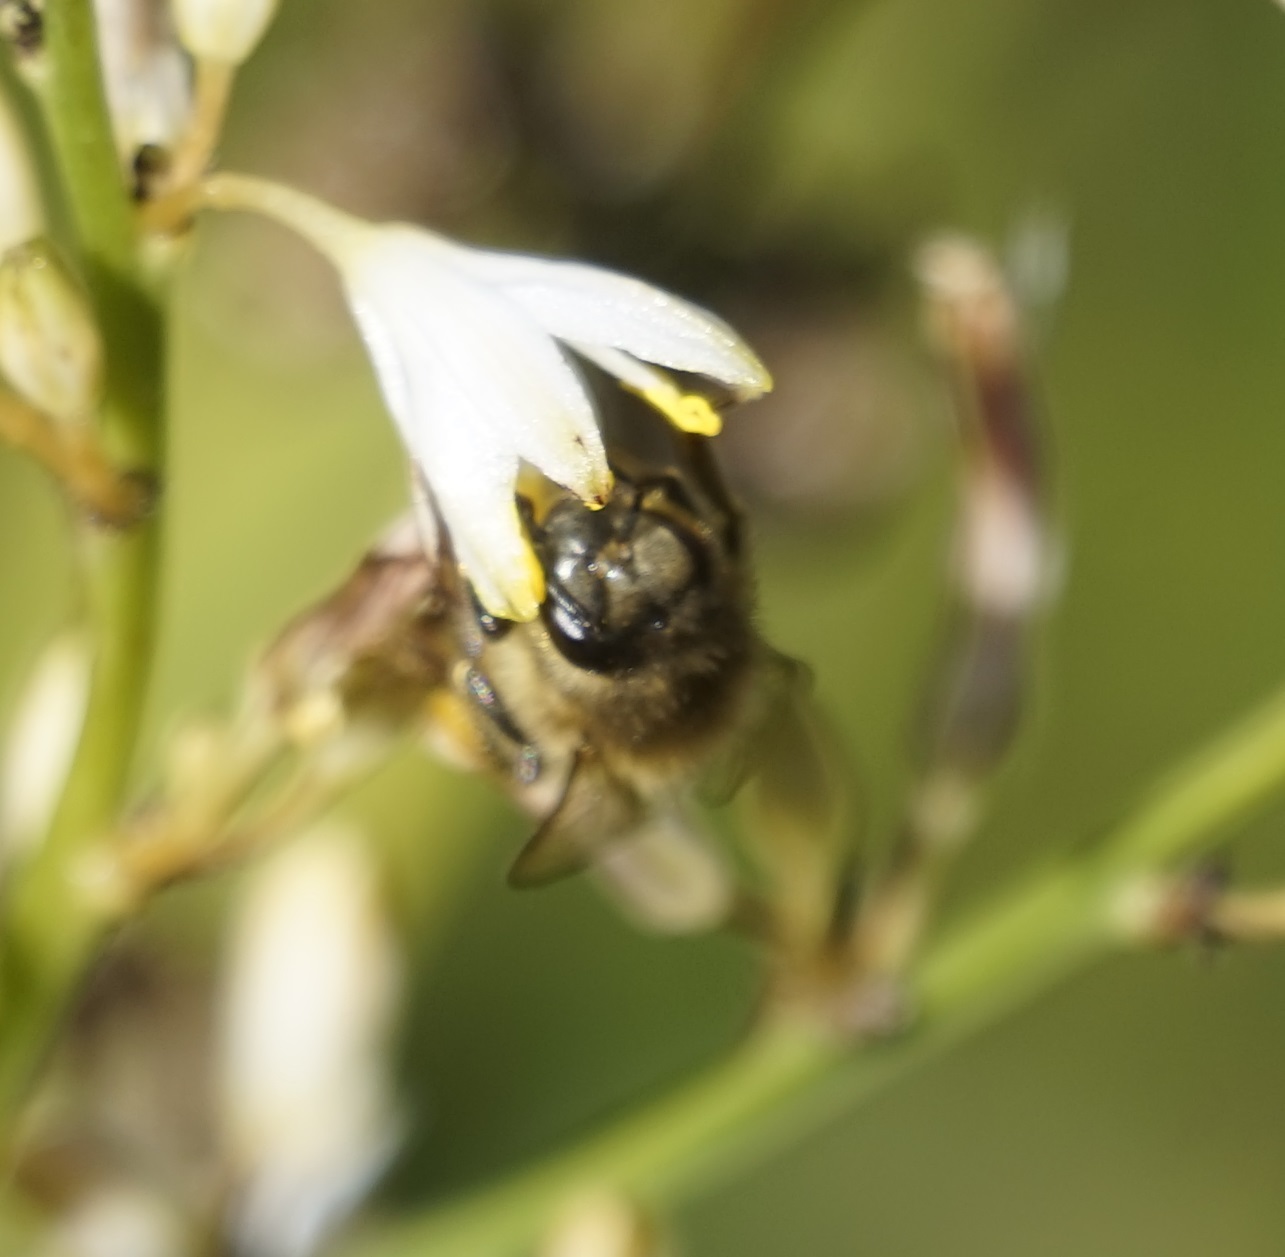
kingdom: Animalia
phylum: Arthropoda
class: Insecta
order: Hymenoptera
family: Apidae
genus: Apis
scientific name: Apis mellifera
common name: Honey bee
